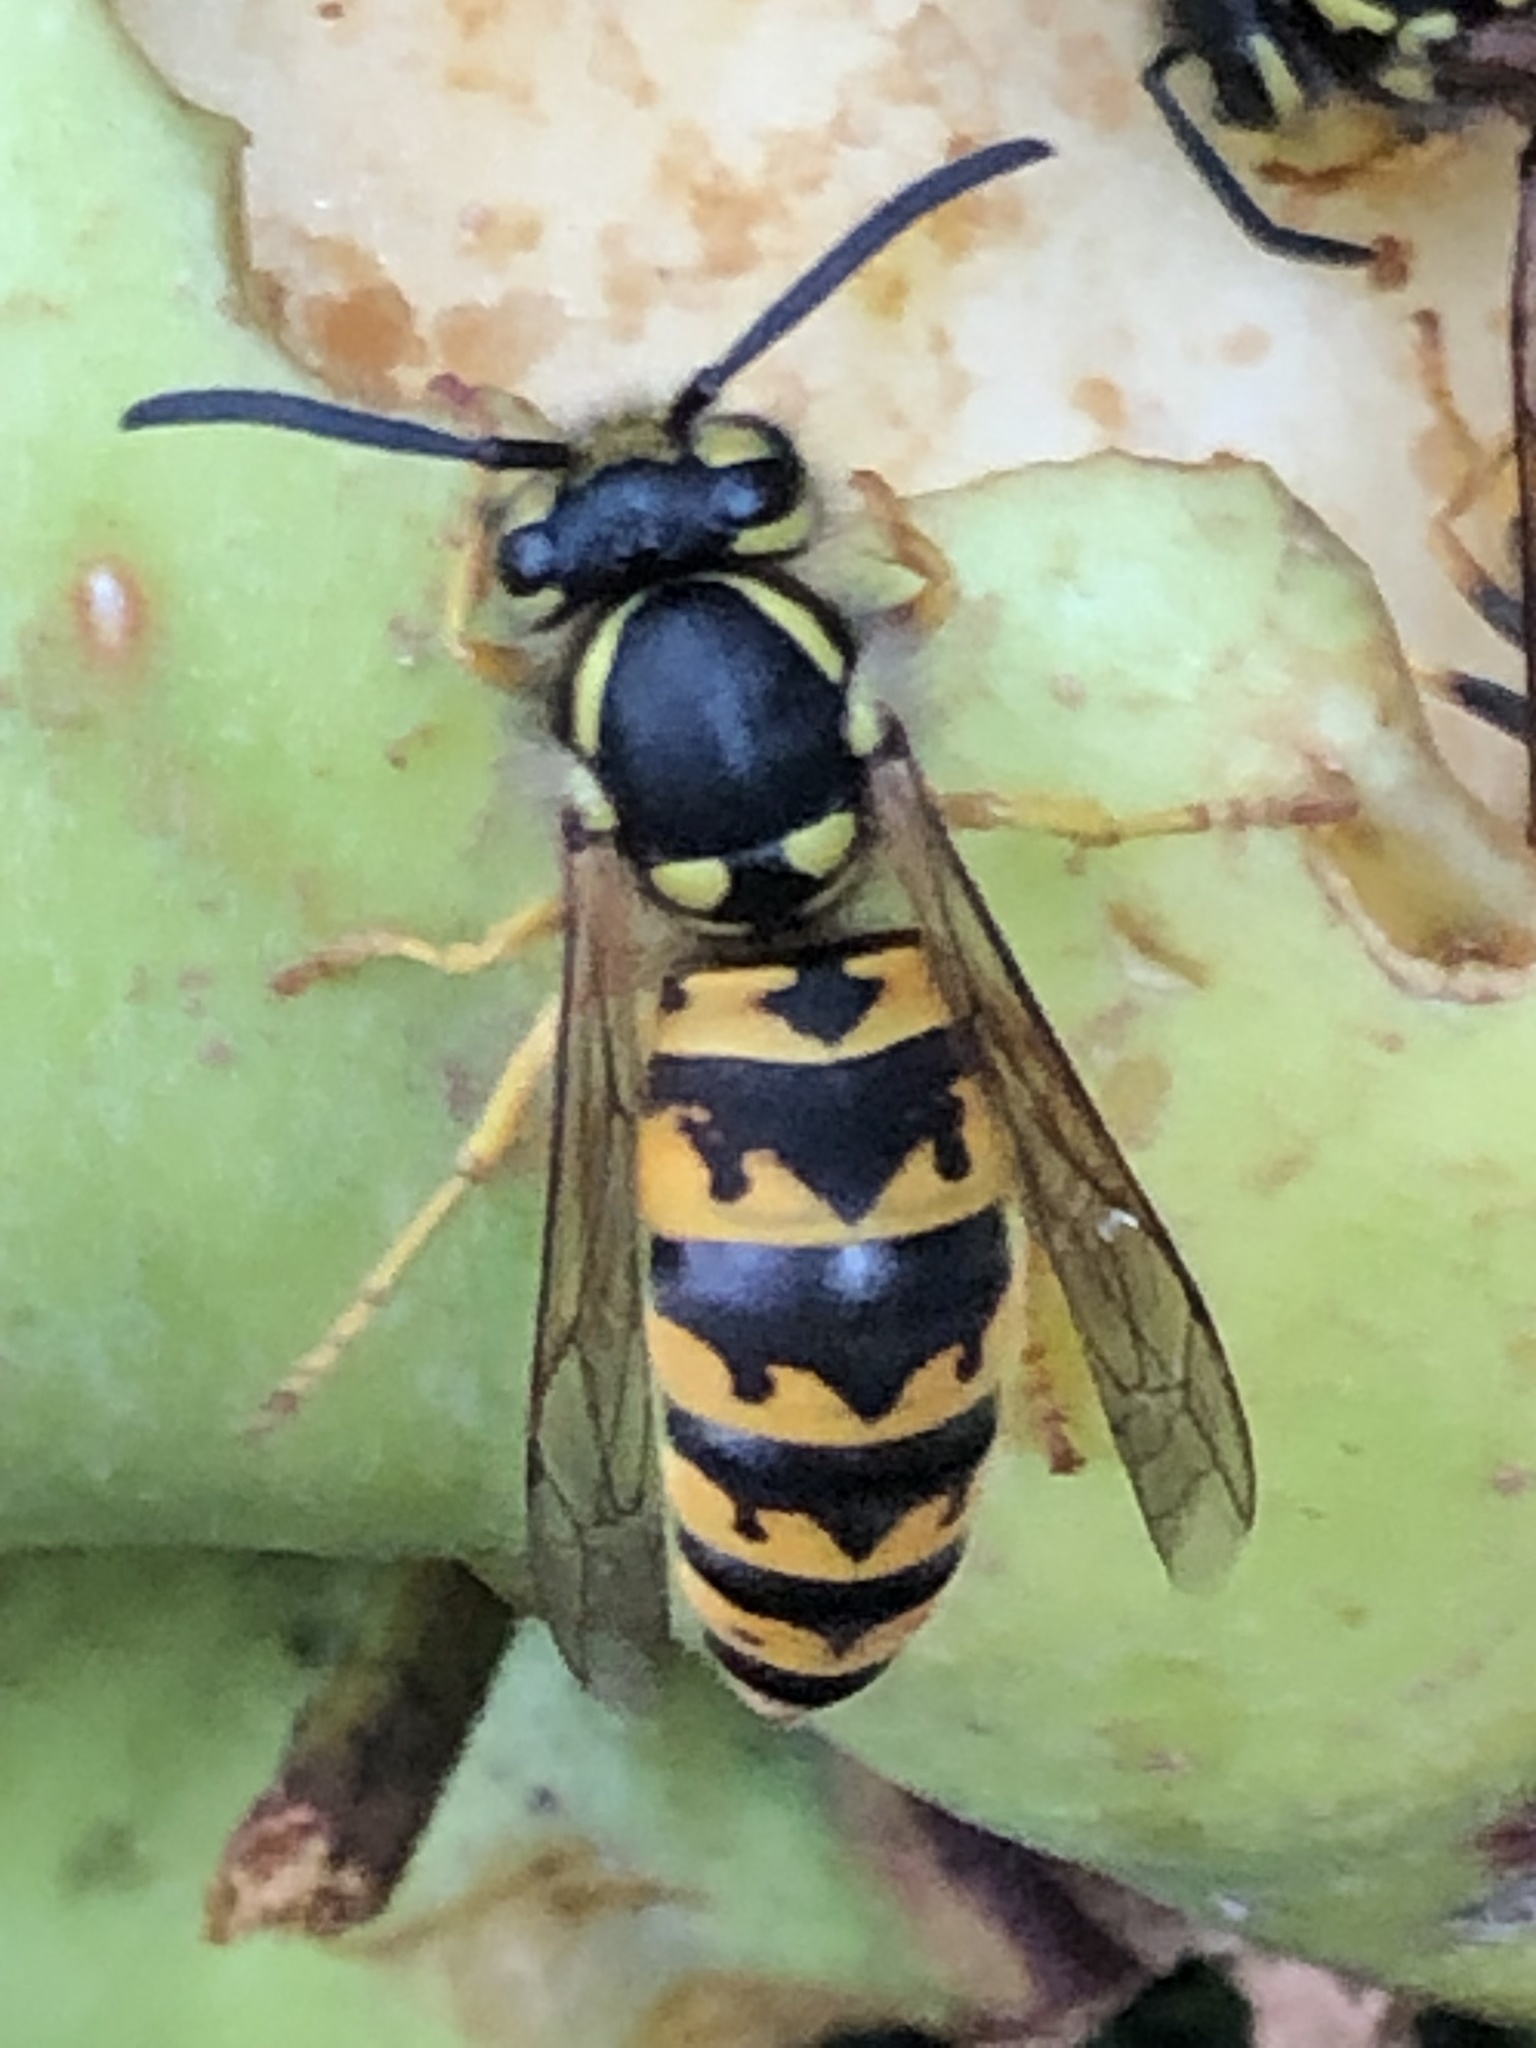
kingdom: Animalia
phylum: Arthropoda
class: Insecta
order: Hymenoptera
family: Vespidae
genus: Vespula
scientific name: Vespula germanica
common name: German wasp
